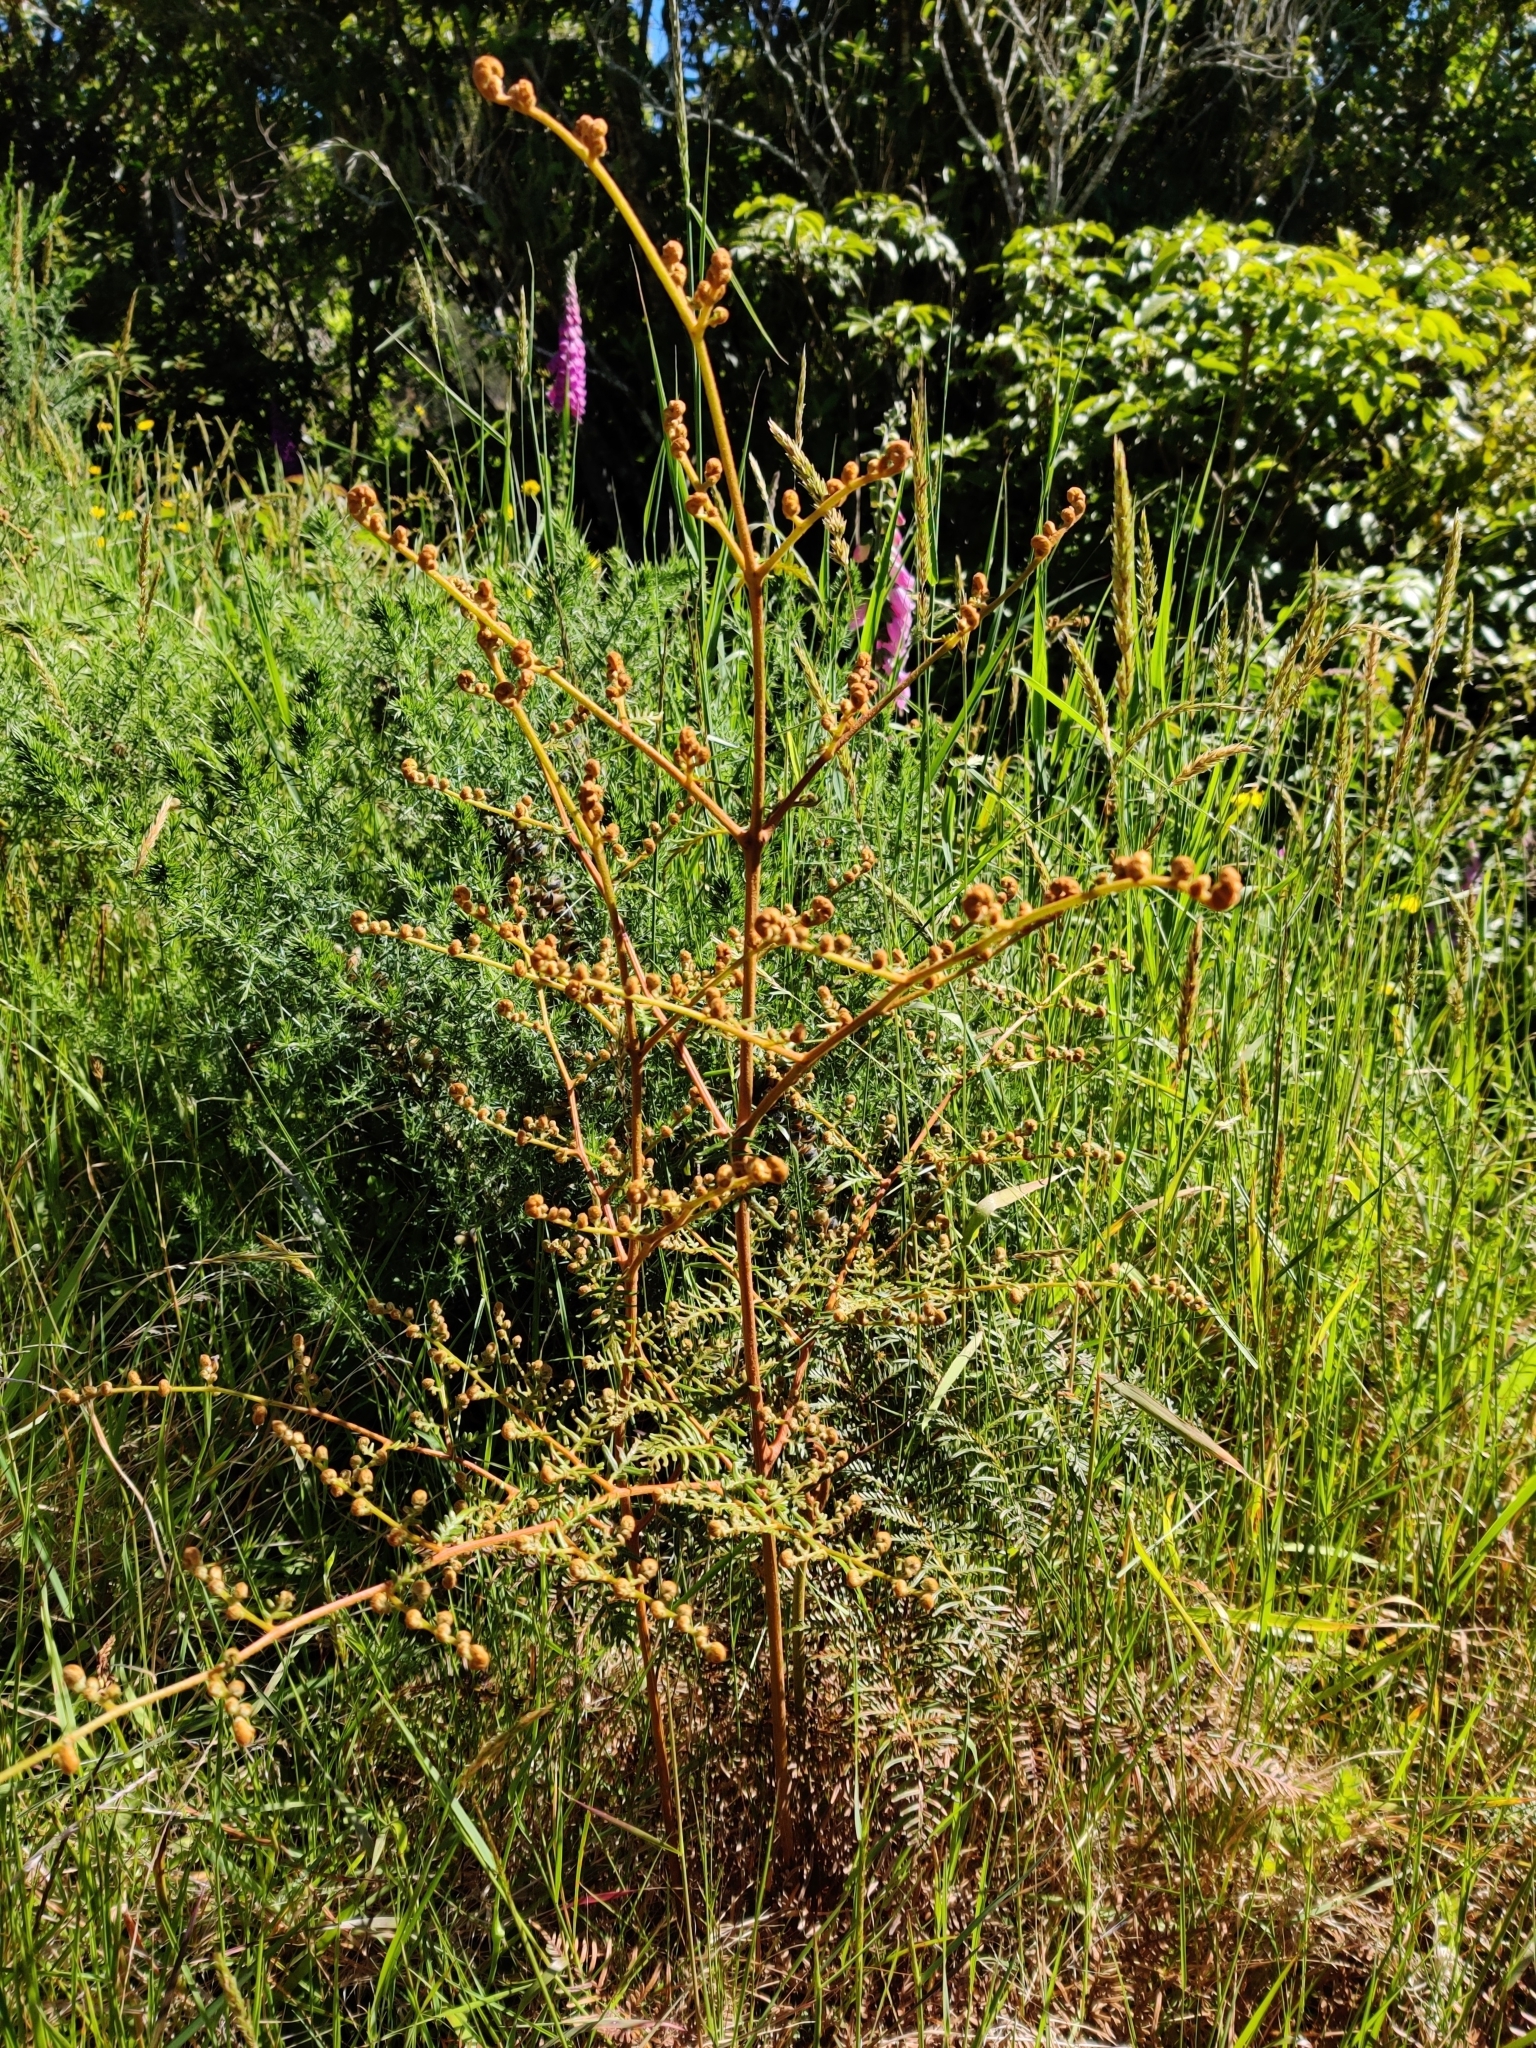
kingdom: Plantae
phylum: Tracheophyta
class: Polypodiopsida
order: Polypodiales
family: Dennstaedtiaceae
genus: Pteridium
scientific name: Pteridium esculentum
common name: Bracken fern
